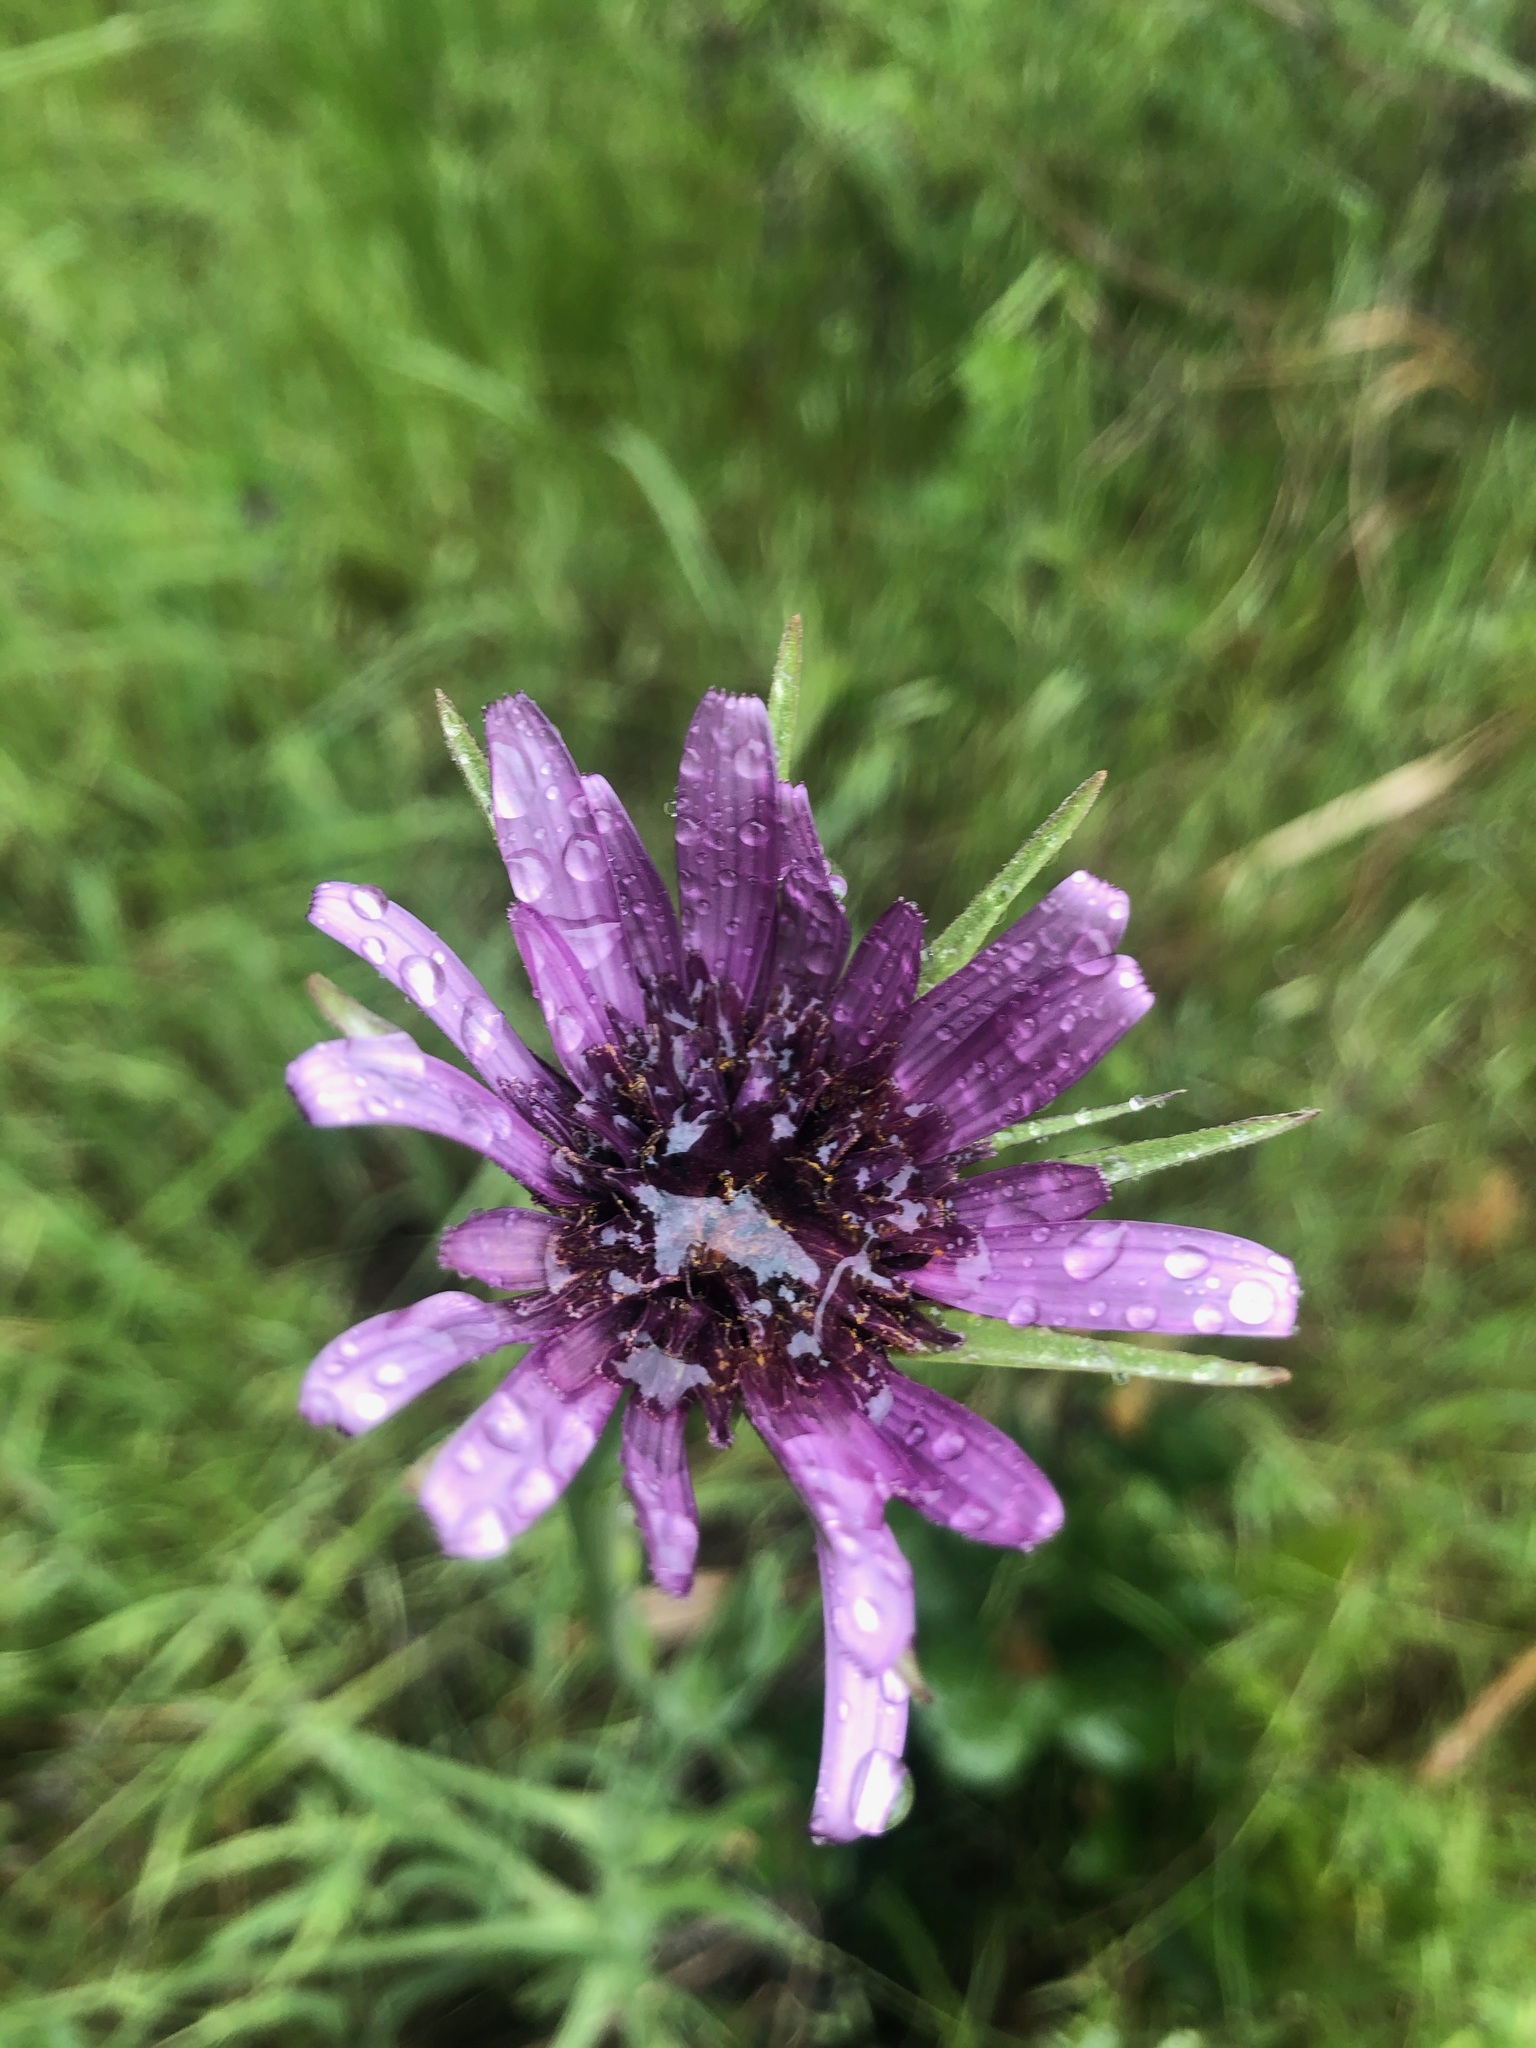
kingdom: Plantae
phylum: Tracheophyta
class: Magnoliopsida
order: Asterales
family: Asteraceae
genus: Tragopogon
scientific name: Tragopogon porrifolius
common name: Salsify
